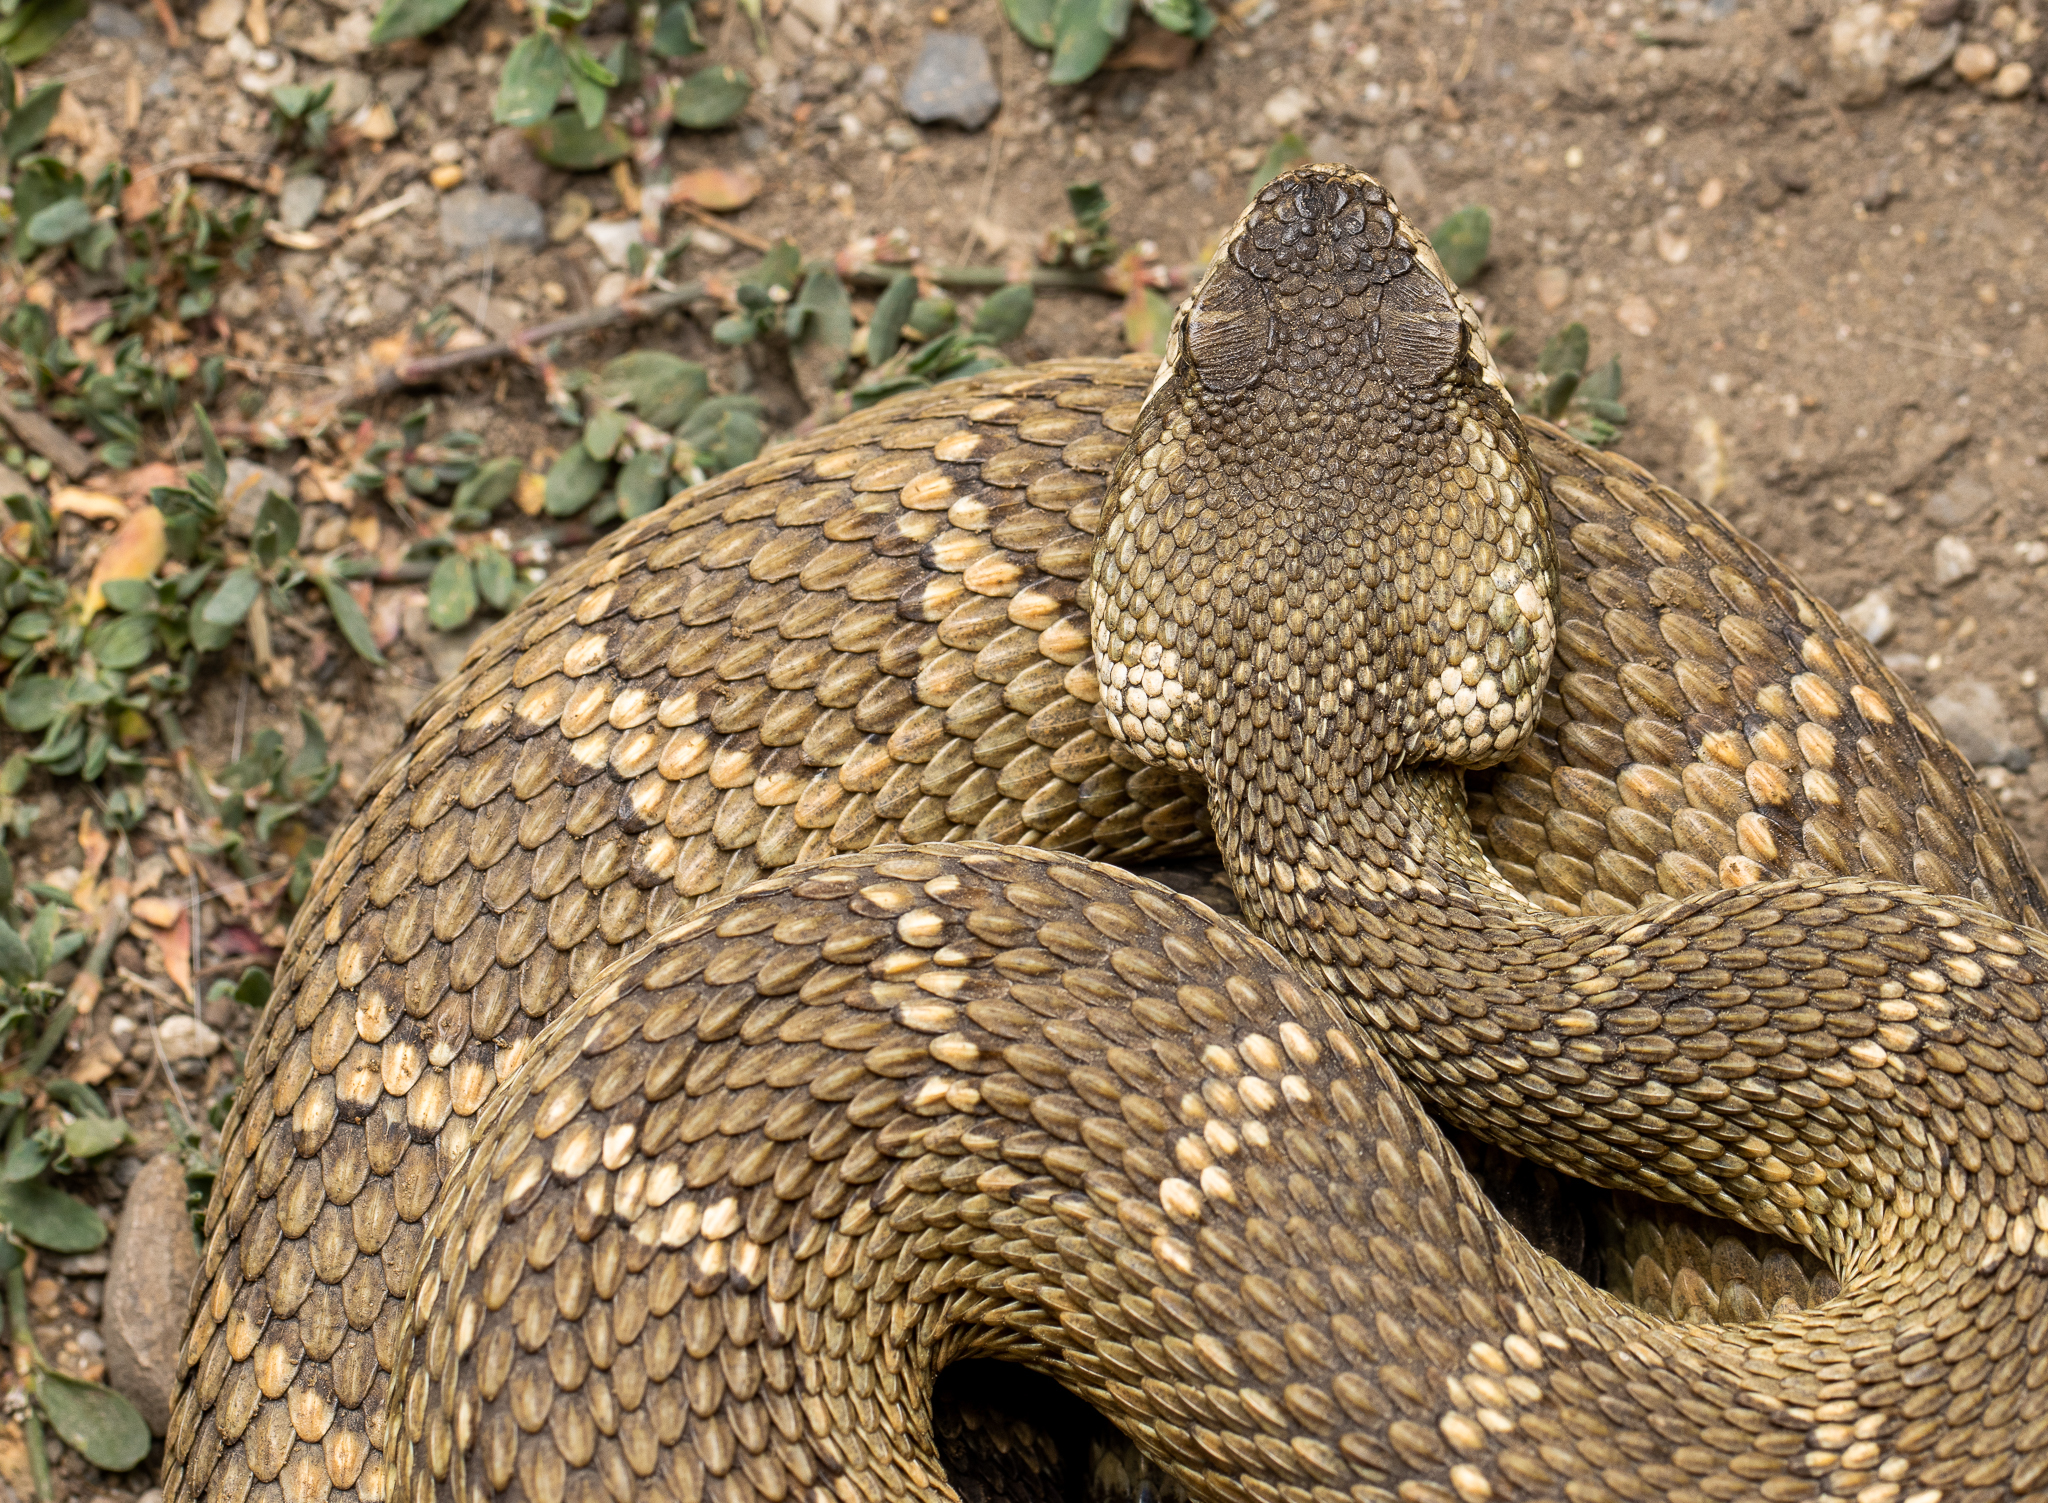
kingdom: Animalia
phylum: Chordata
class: Squamata
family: Viperidae
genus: Crotalus
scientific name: Crotalus oreganus
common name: Abyssus
